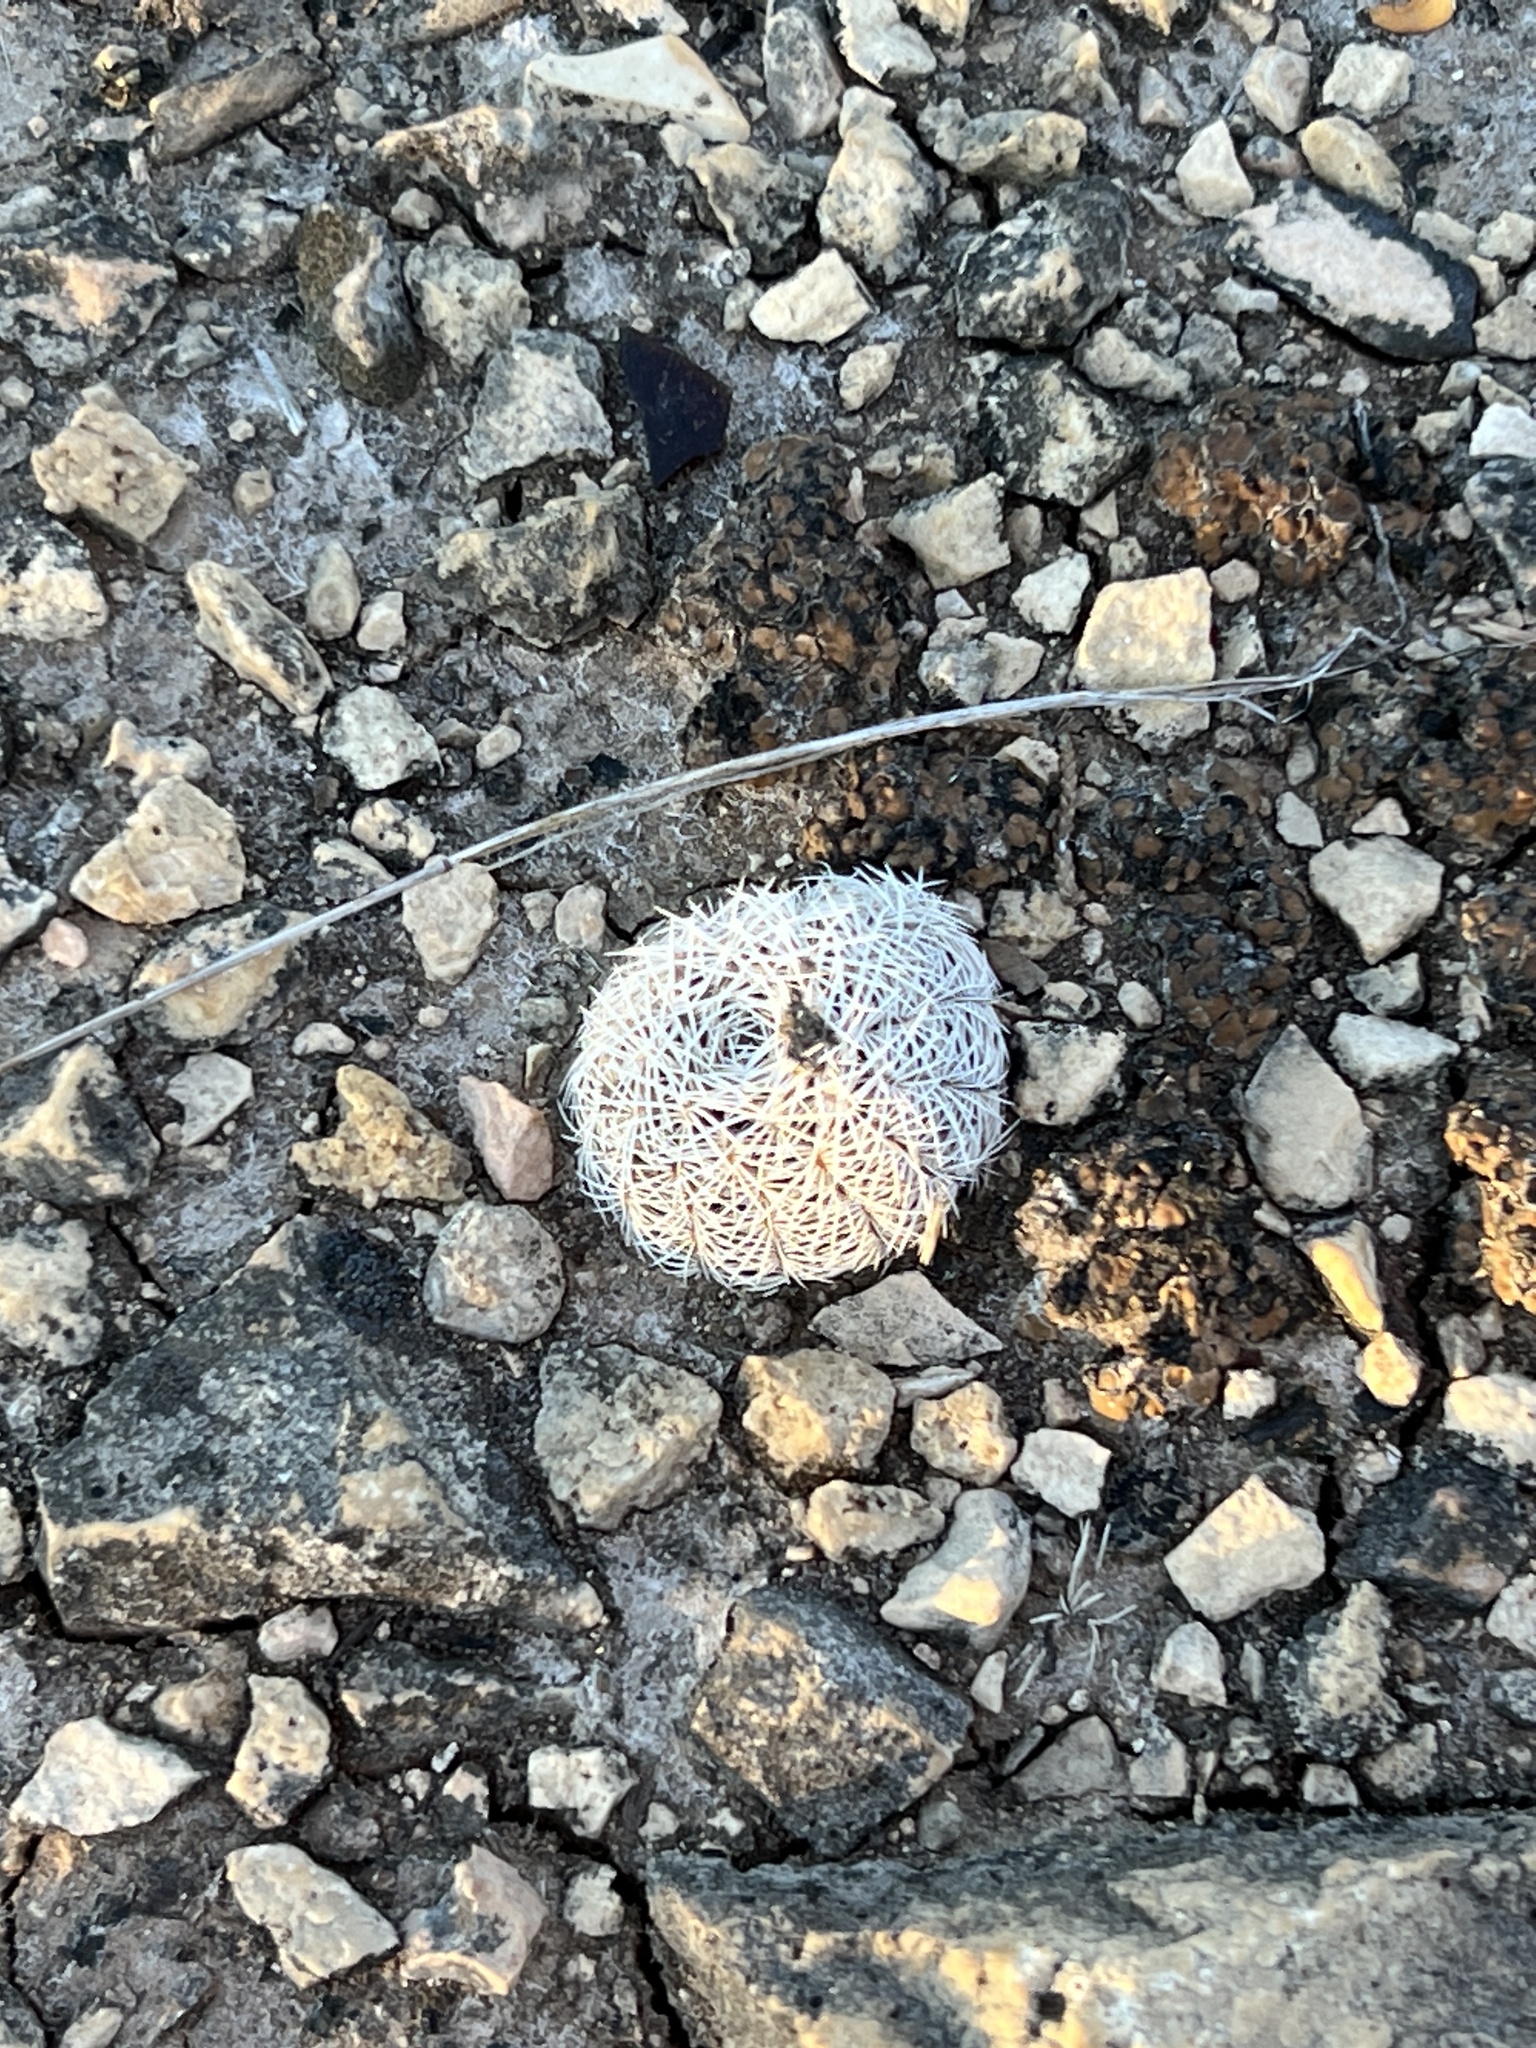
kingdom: Plantae
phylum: Tracheophyta
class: Magnoliopsida
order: Caryophyllales
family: Cactaceae
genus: Echinocereus
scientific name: Echinocereus reichenbachii
